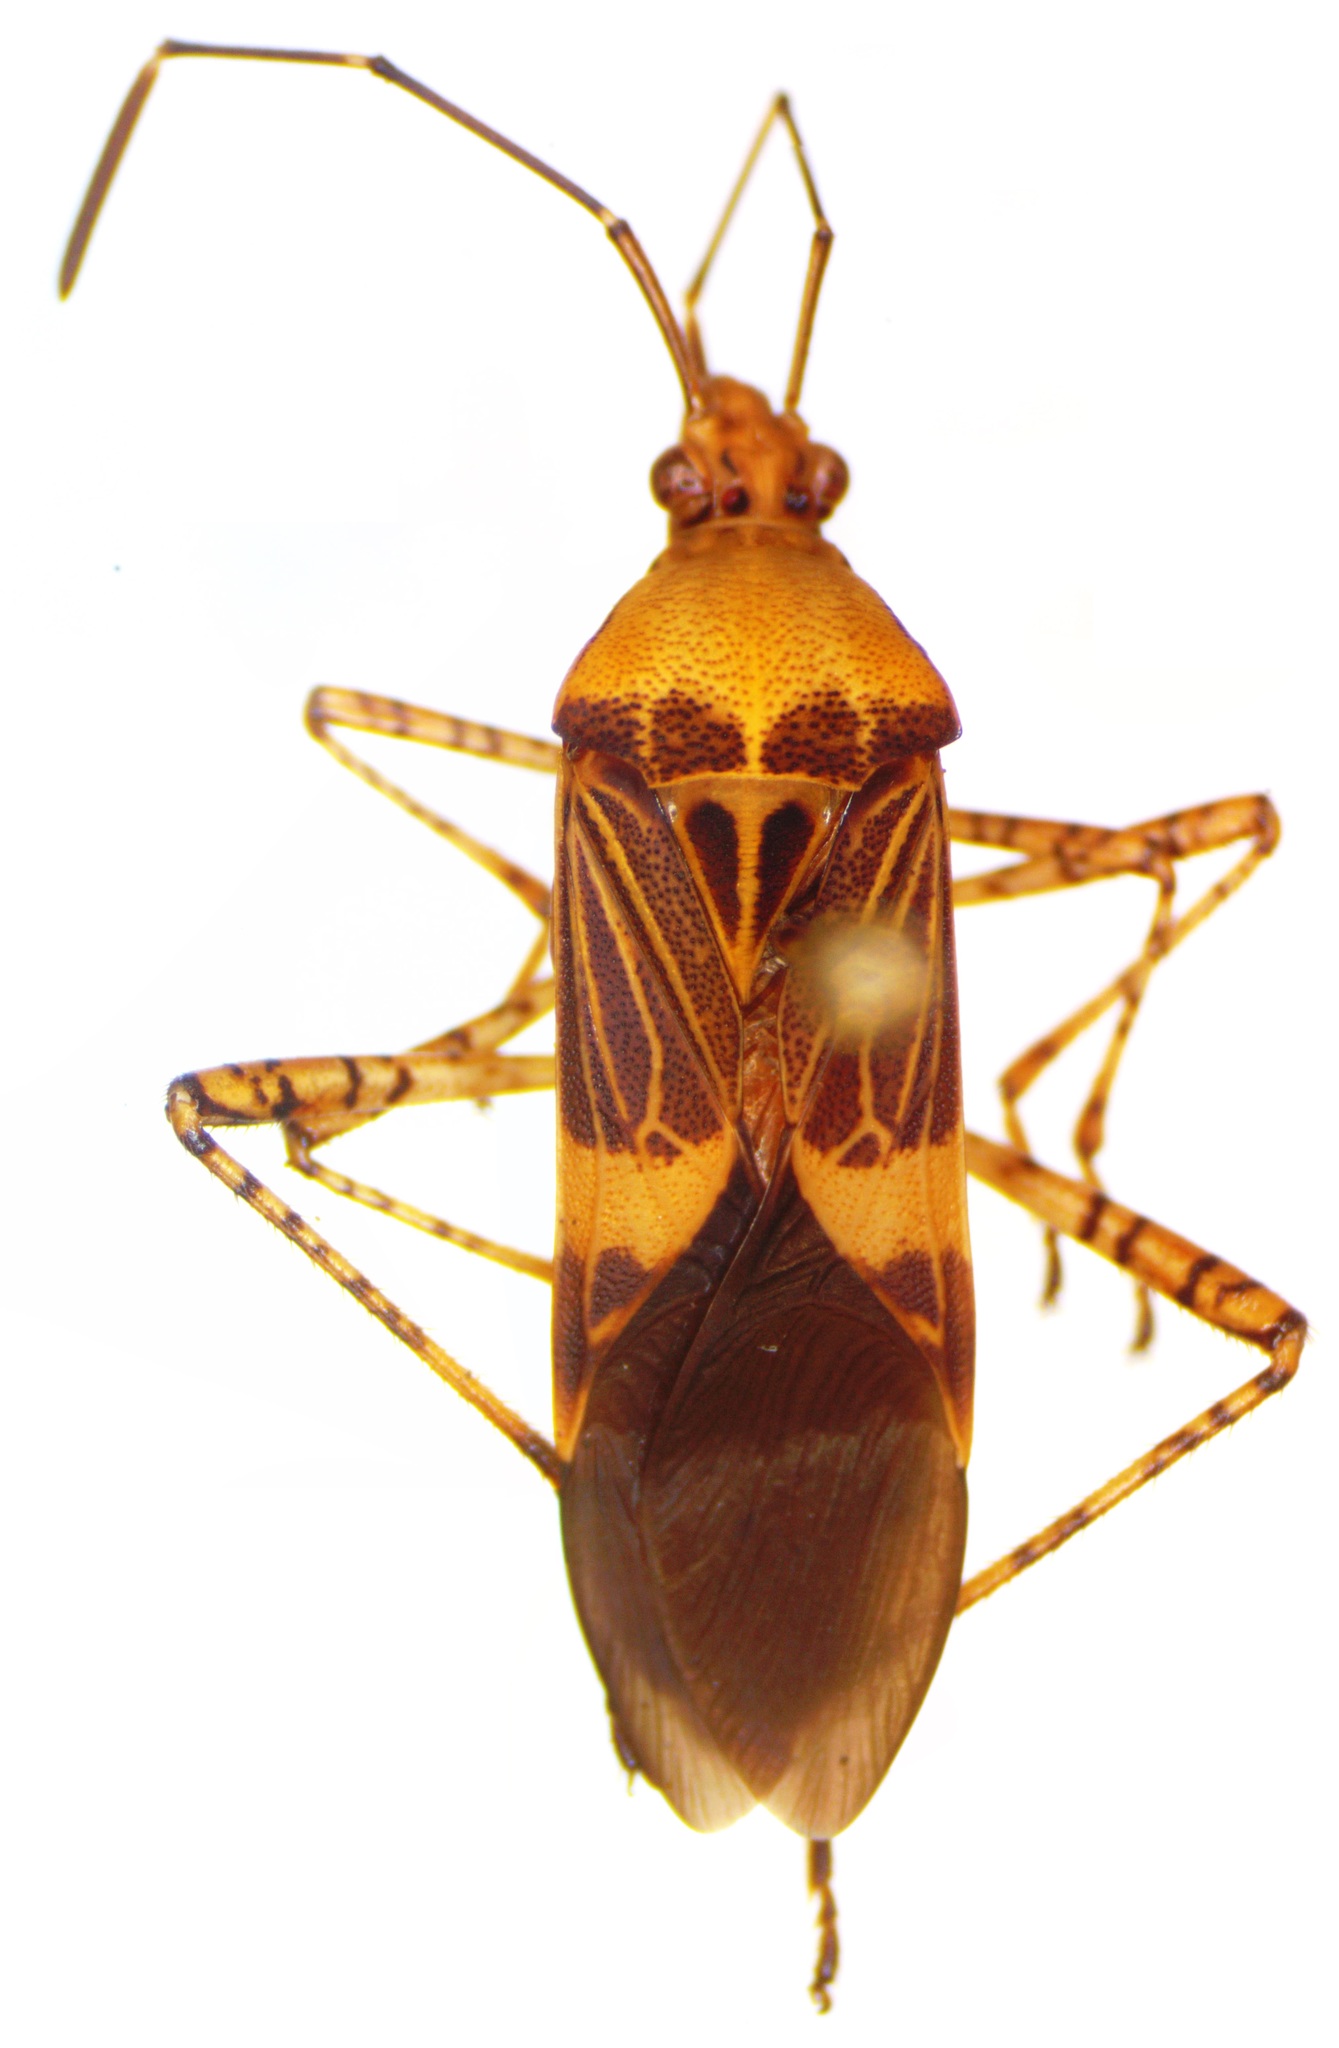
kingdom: Animalia
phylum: Arthropoda
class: Insecta
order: Hemiptera
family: Coreidae
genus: Hypselonotus
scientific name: Hypselonotus lineatus
